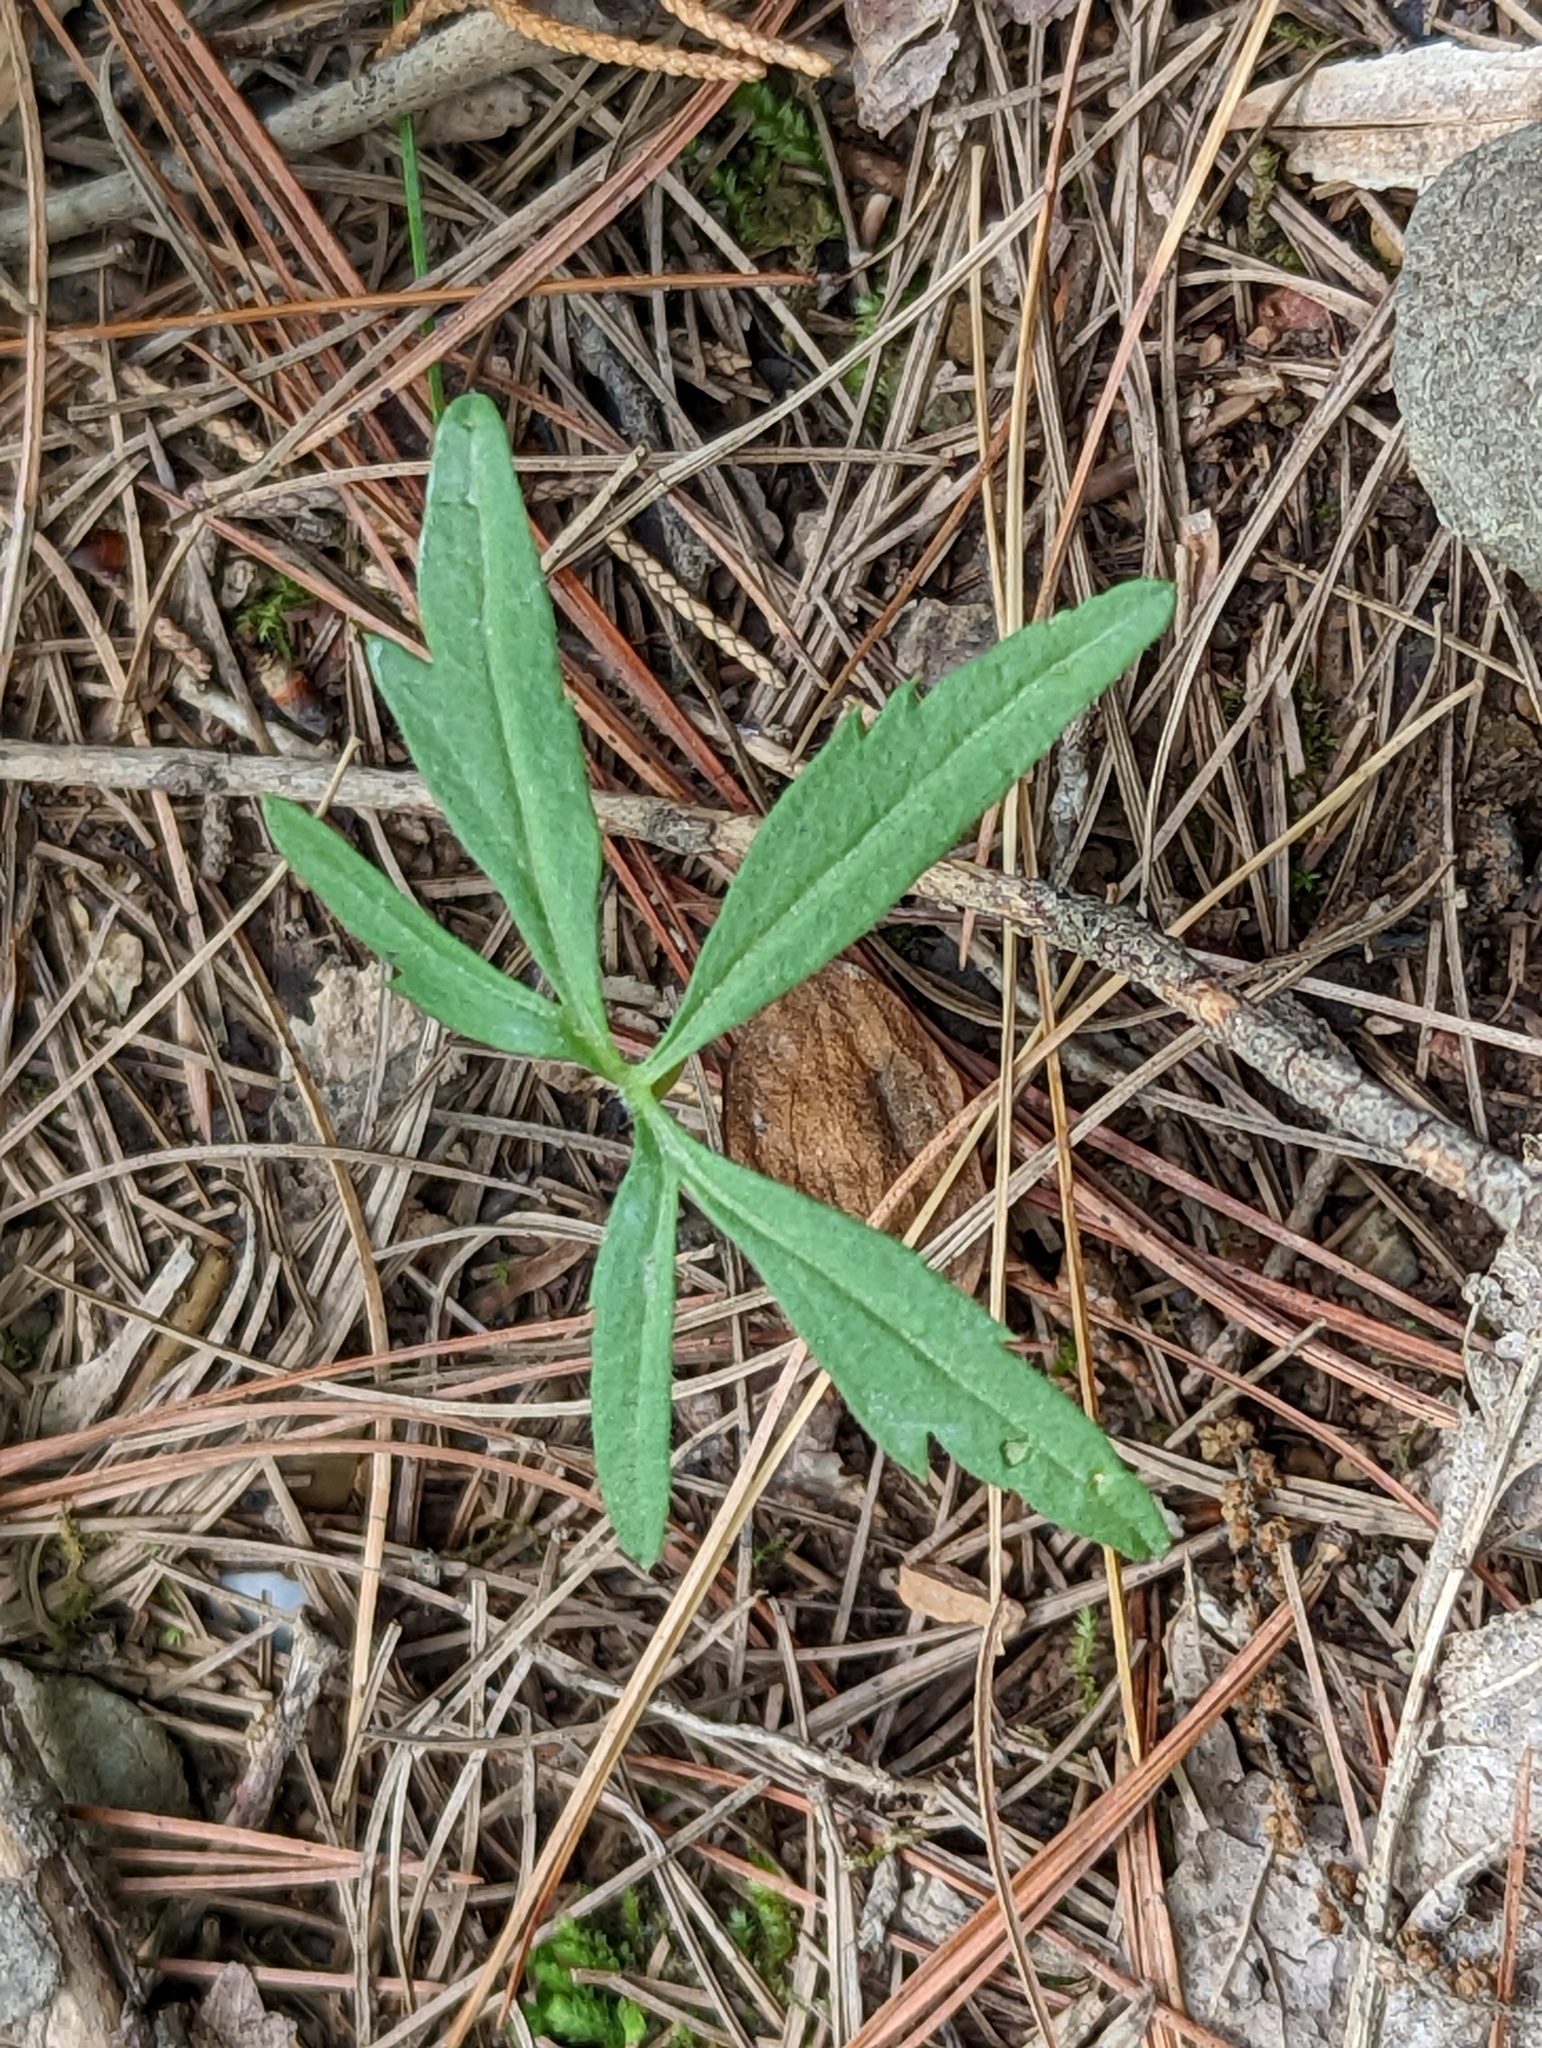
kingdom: Plantae
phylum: Tracheophyta
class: Magnoliopsida
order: Brassicales
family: Brassicaceae
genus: Cardamine
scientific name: Cardamine concatenata
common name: Cut-leaf toothcup
